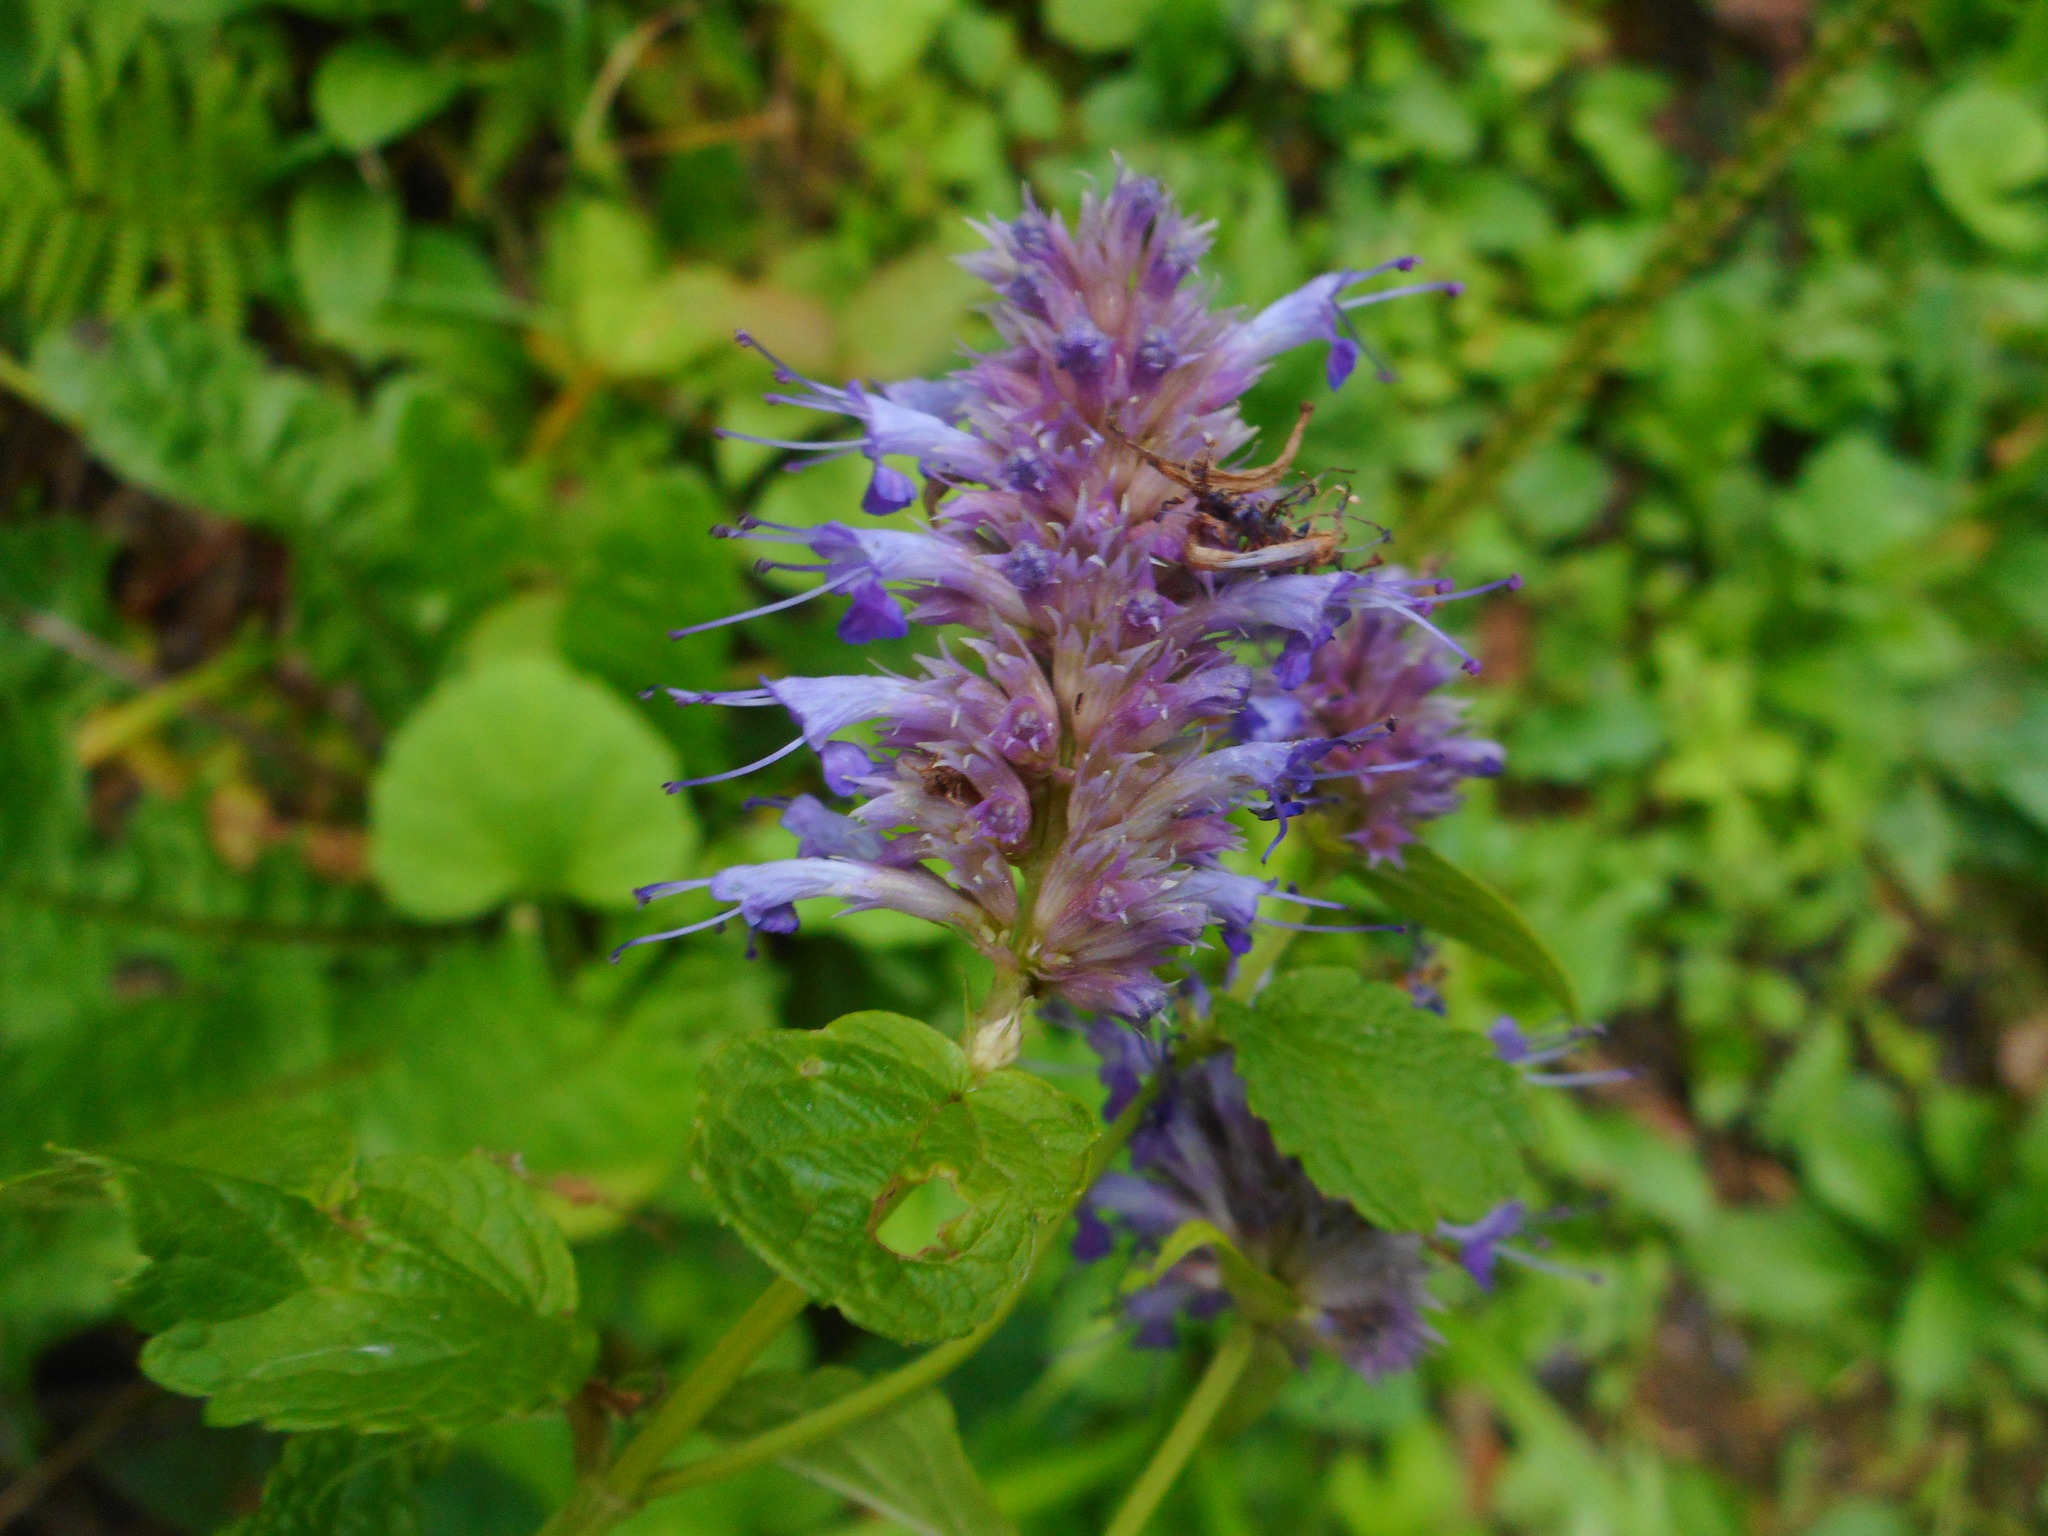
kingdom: Plantae
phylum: Tracheophyta
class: Magnoliopsida
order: Lamiales
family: Lamiaceae
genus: Agastache
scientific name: Agastache rugosa
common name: Mint
